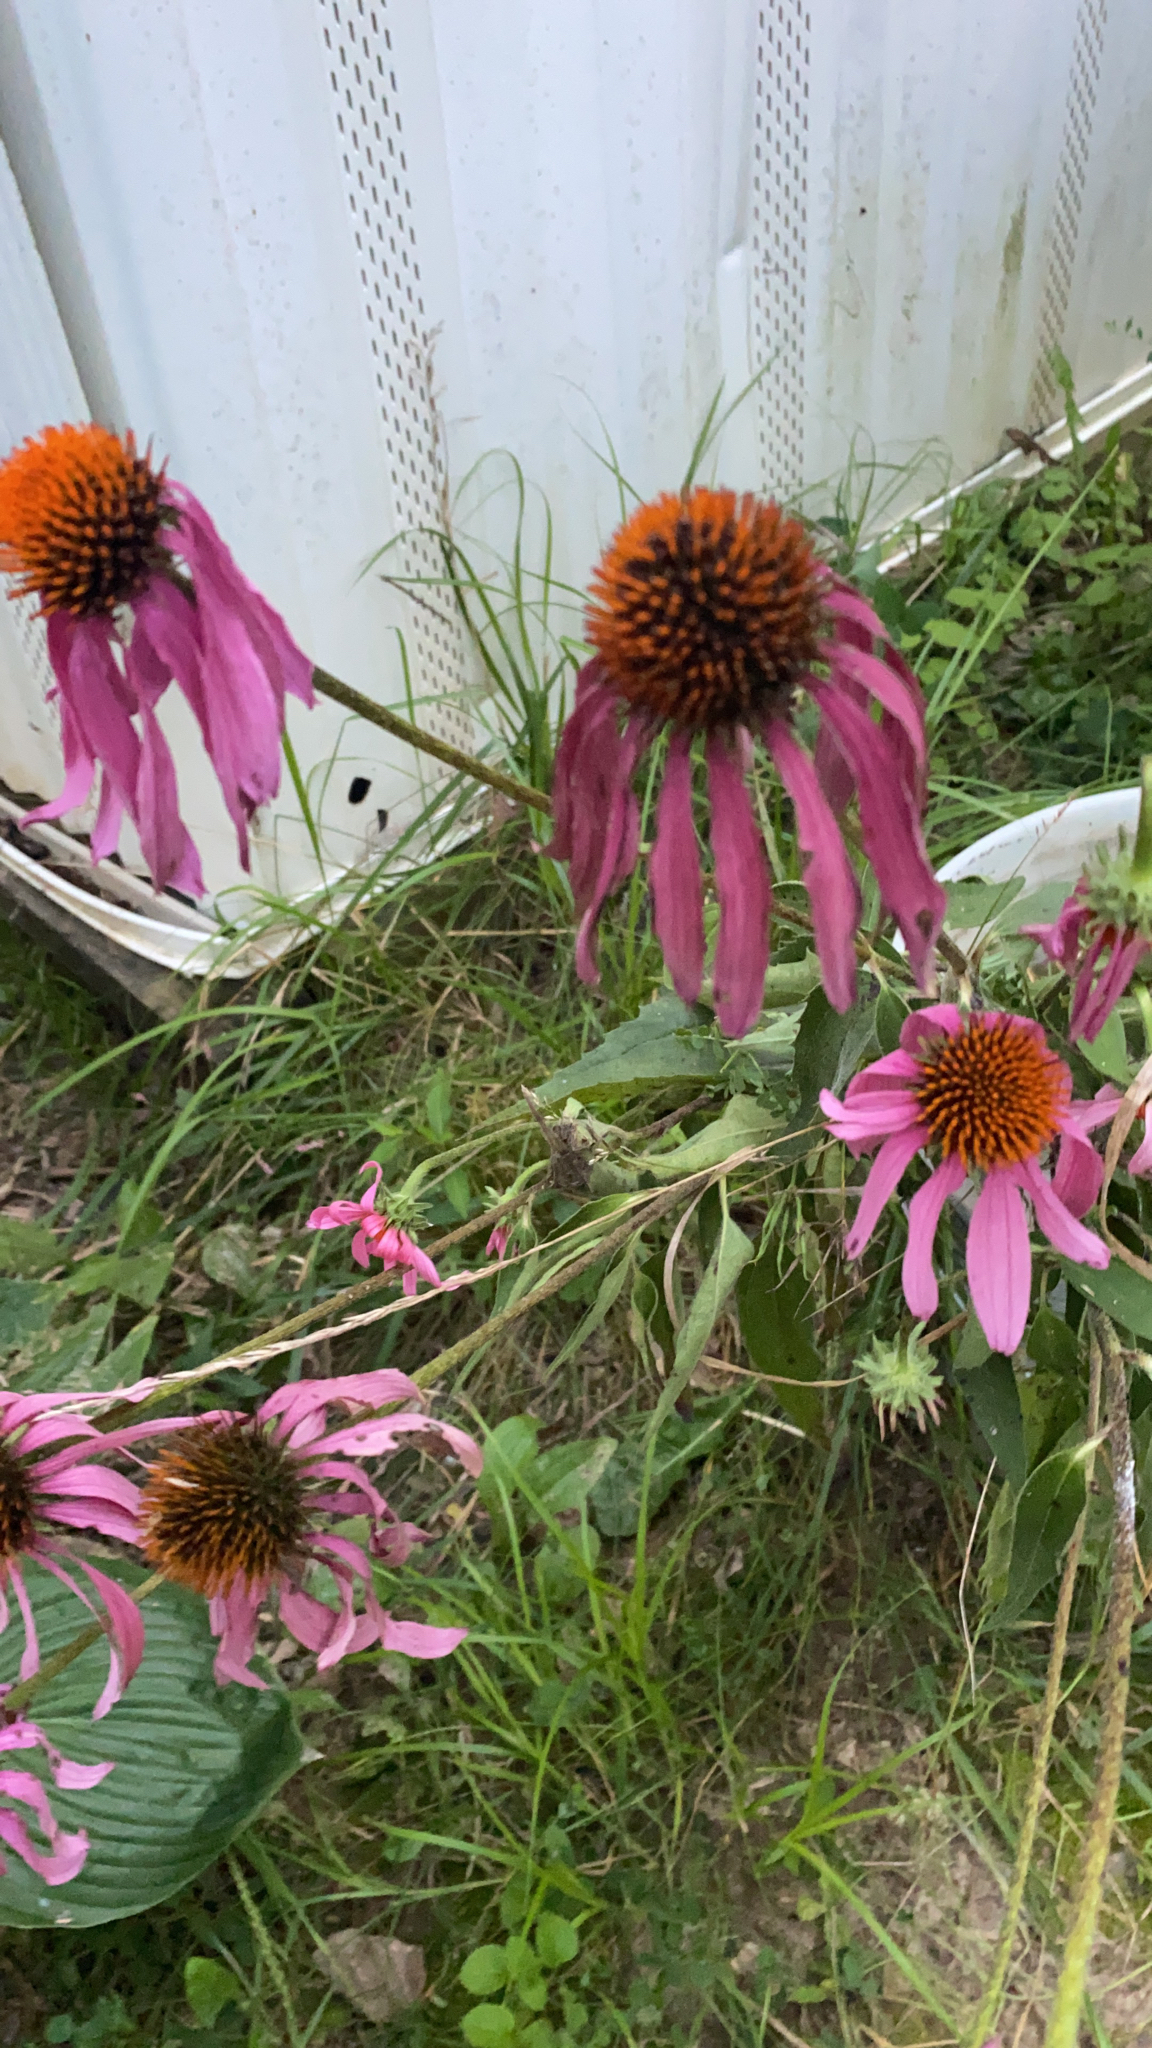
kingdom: Plantae
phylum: Tracheophyta
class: Magnoliopsida
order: Asterales
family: Asteraceae
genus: Echinacea
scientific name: Echinacea purpurea
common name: Broad-leaved purple coneflower
